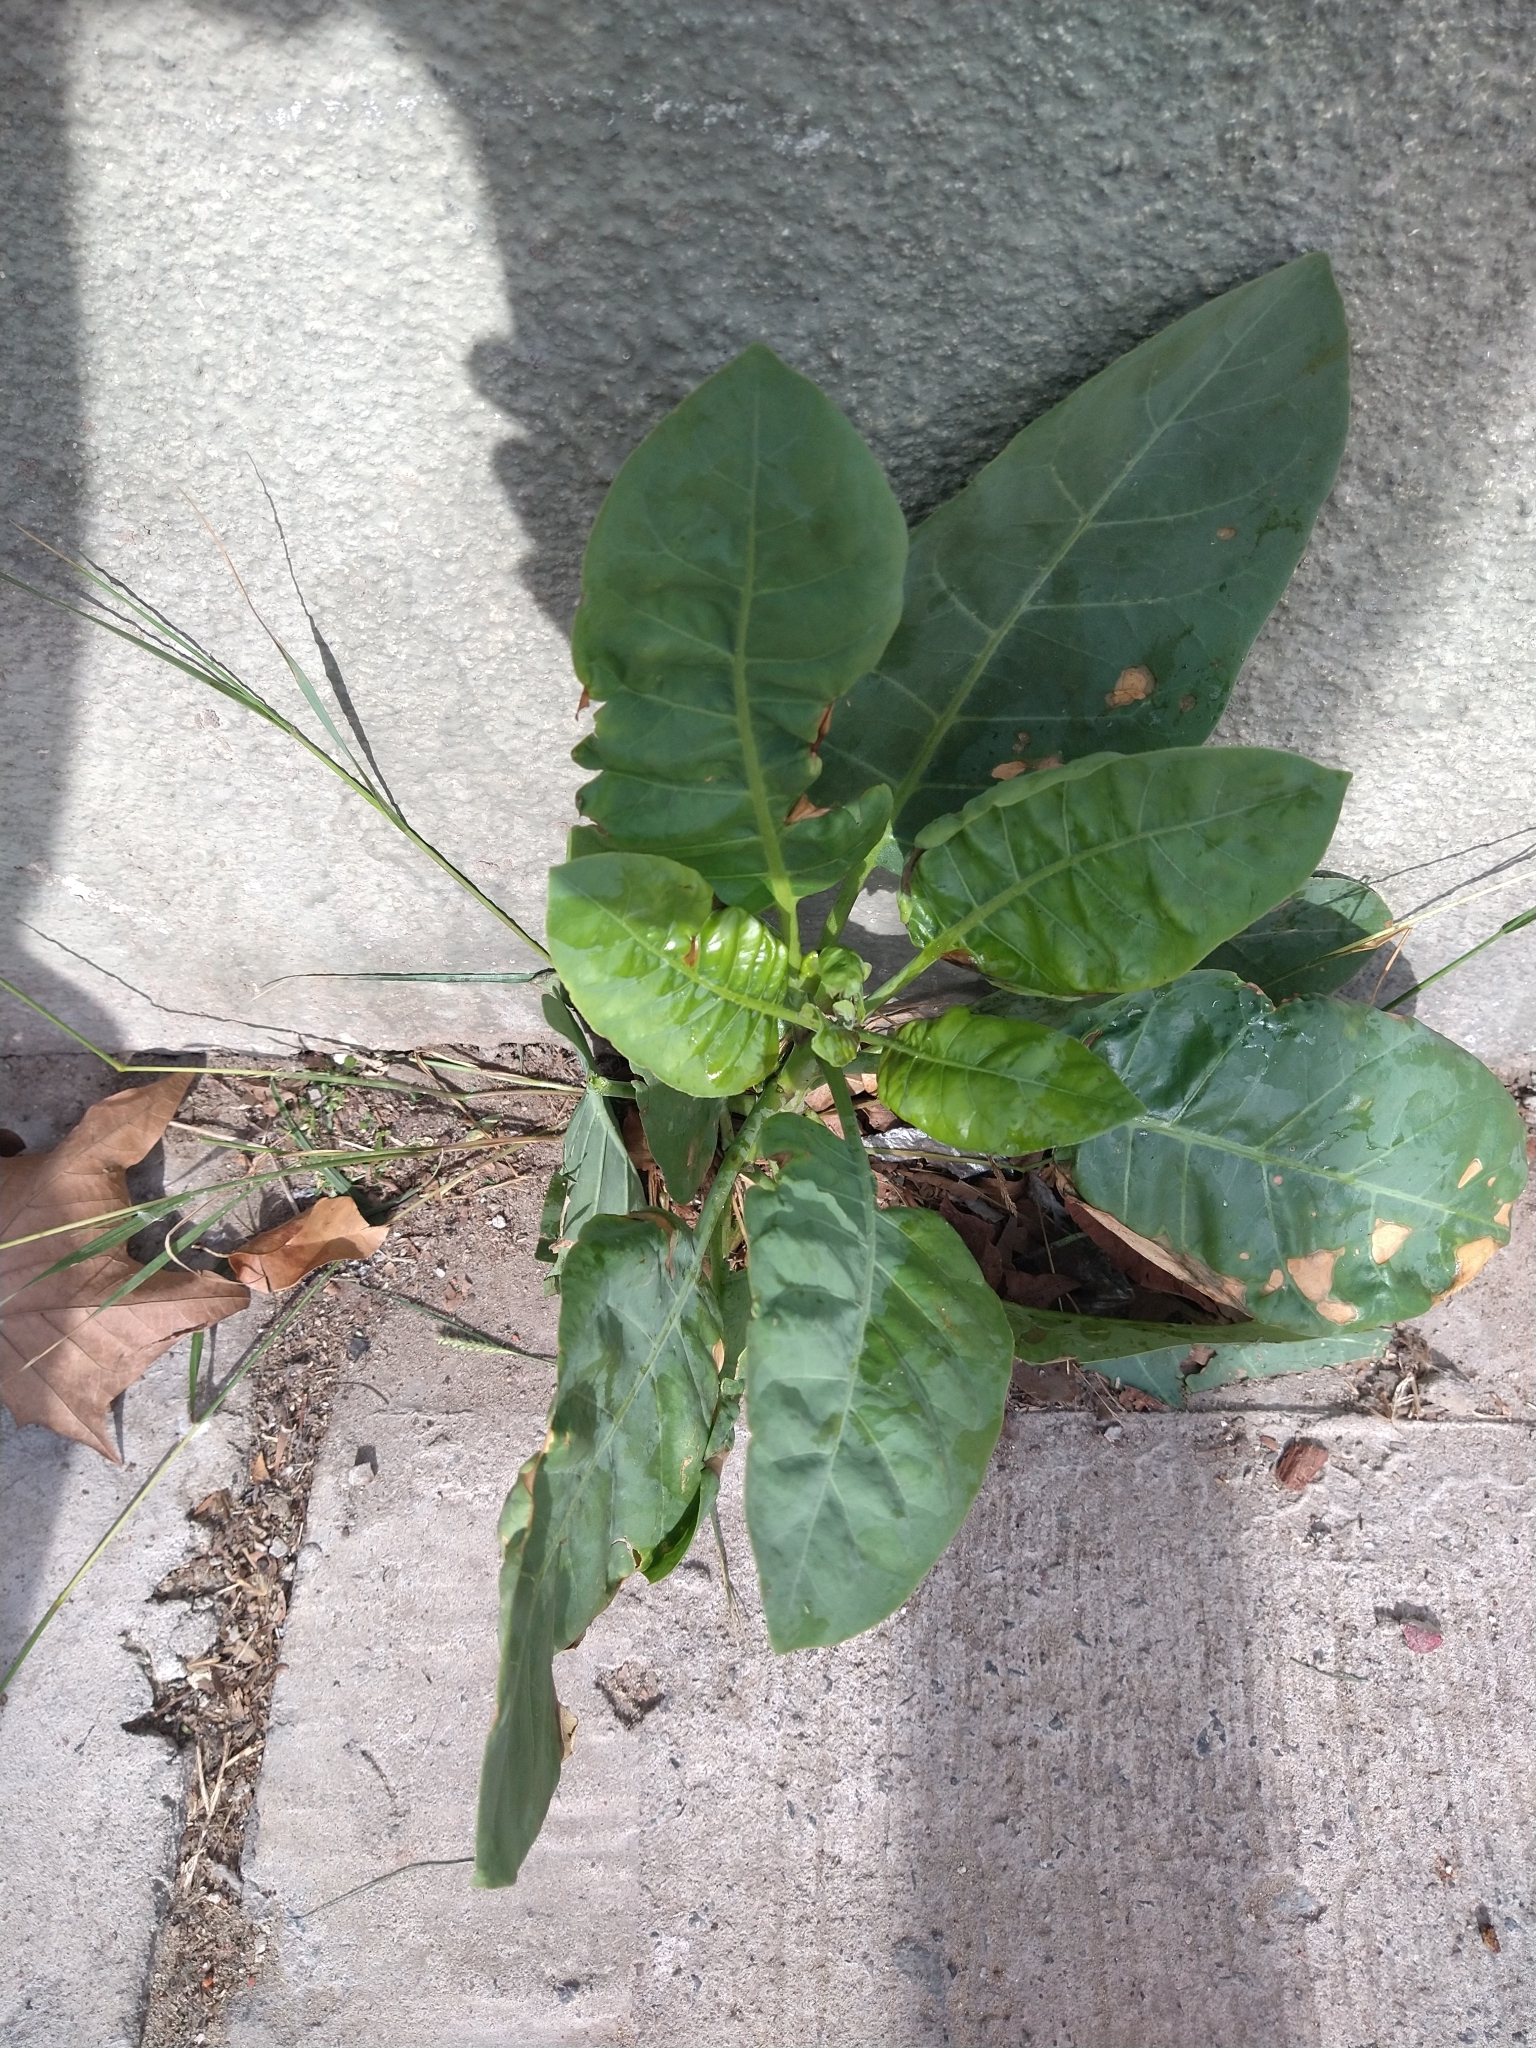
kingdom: Plantae
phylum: Tracheophyta
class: Magnoliopsida
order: Solanales
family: Solanaceae
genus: Nicotiana
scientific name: Nicotiana glauca
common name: Tree tobacco
